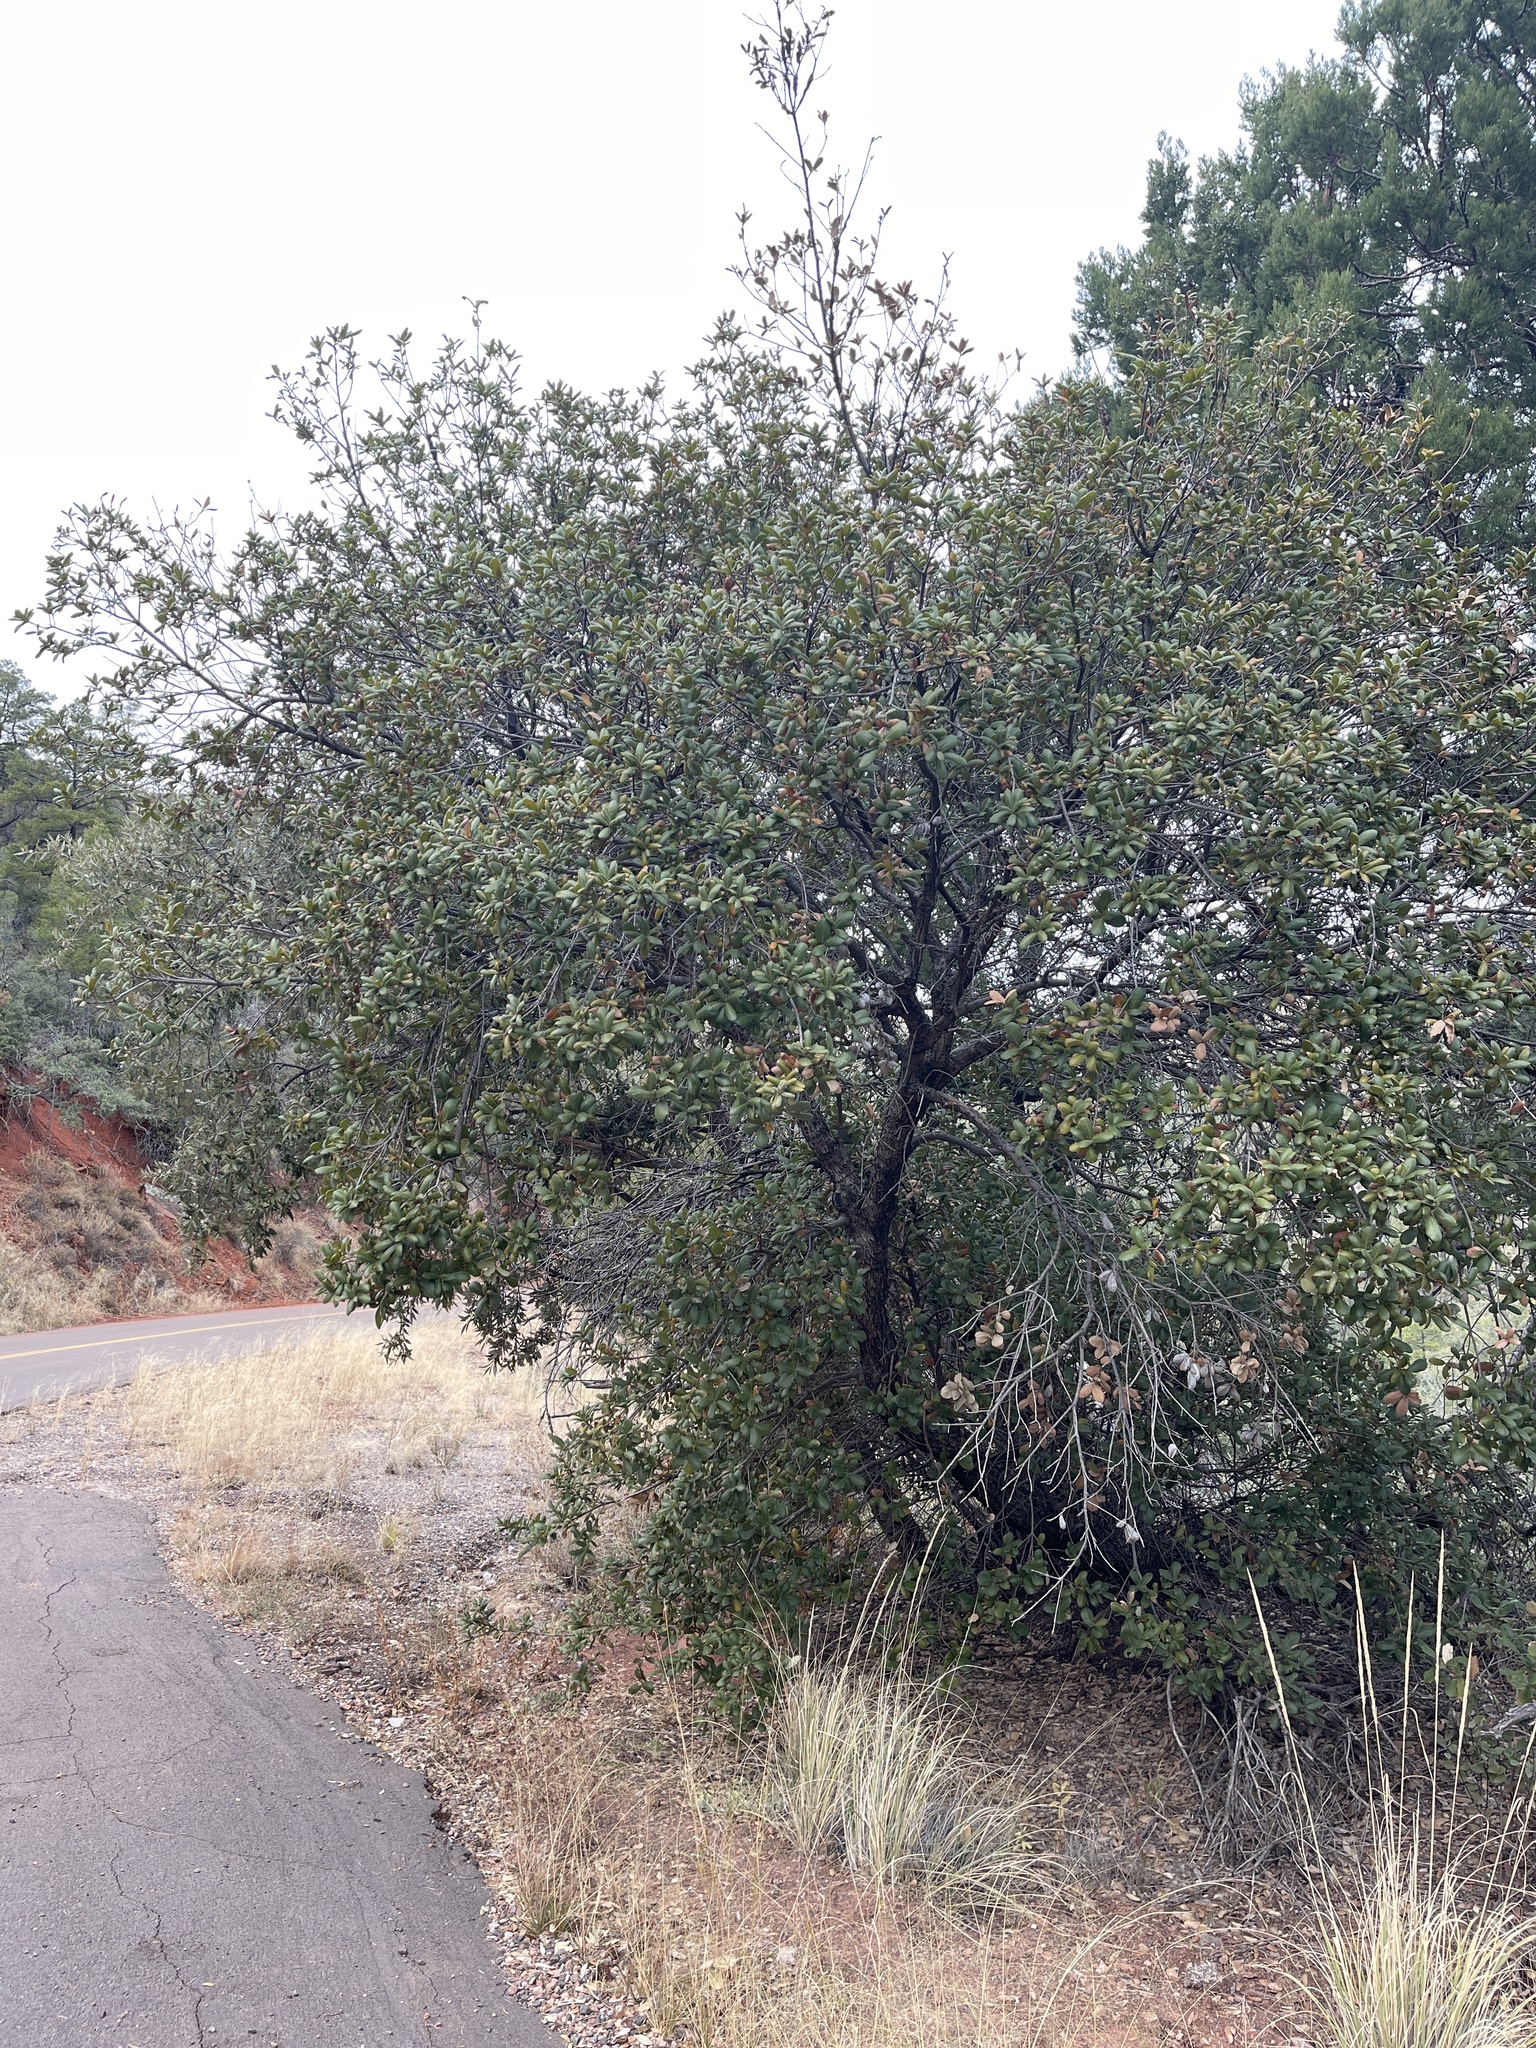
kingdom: Plantae
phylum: Tracheophyta
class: Magnoliopsida
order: Fagales
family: Fagaceae
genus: Quercus
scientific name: Quercus rugosa
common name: Netleaf oak
